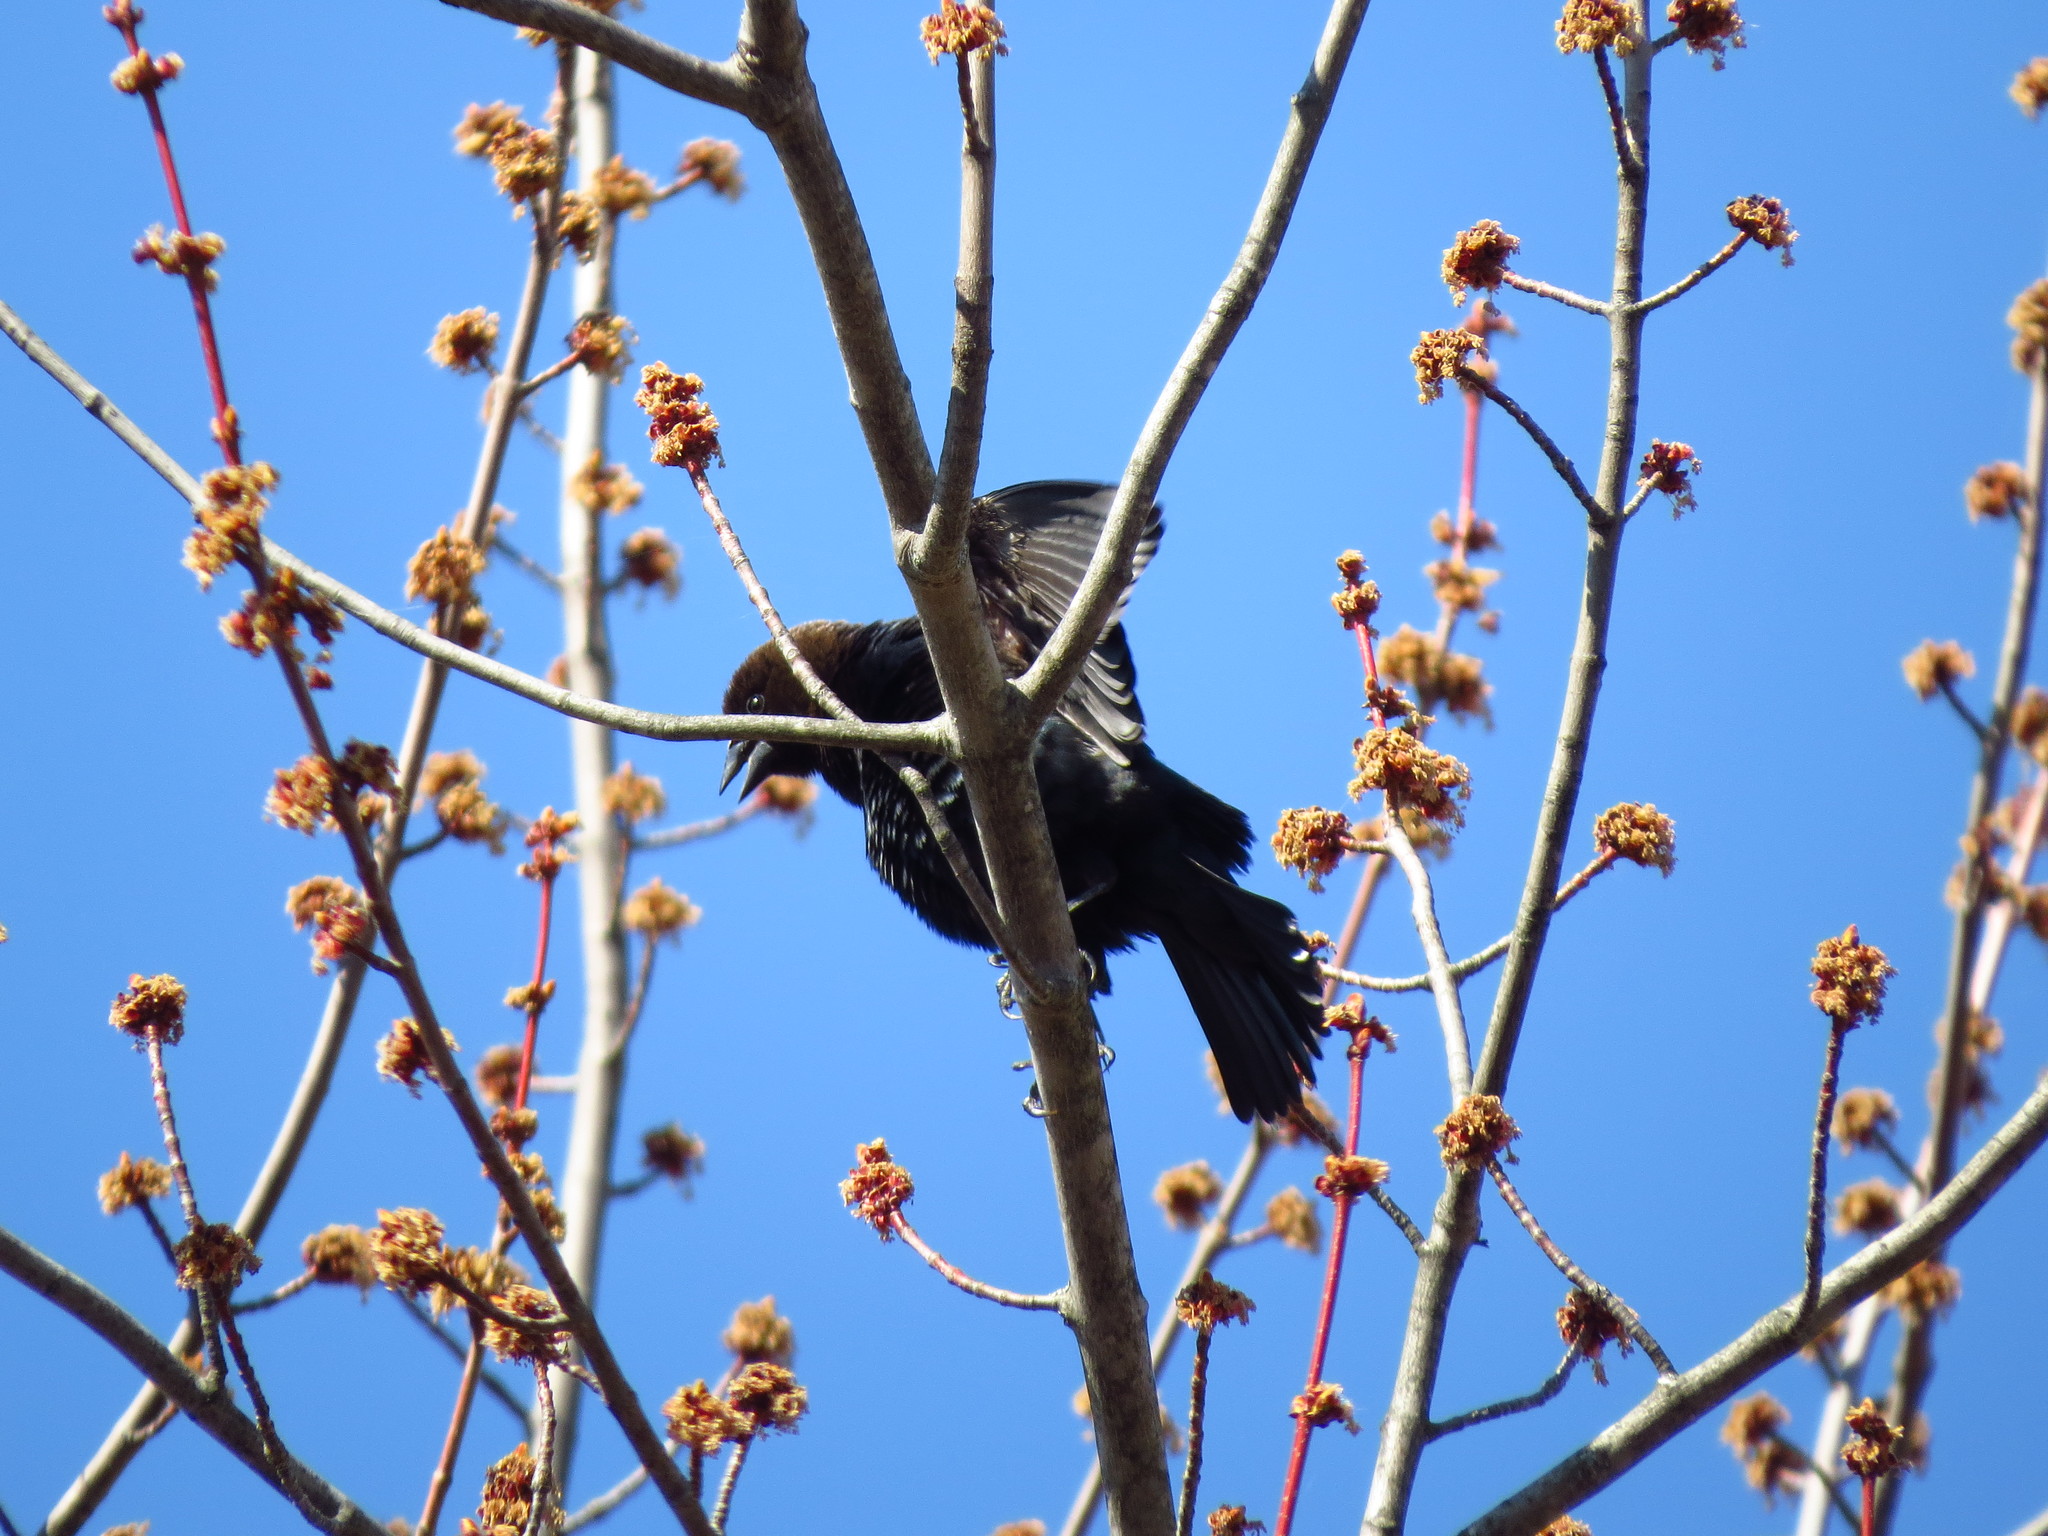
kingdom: Animalia
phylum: Chordata
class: Aves
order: Passeriformes
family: Icteridae
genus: Molothrus
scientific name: Molothrus ater
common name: Brown-headed cowbird
